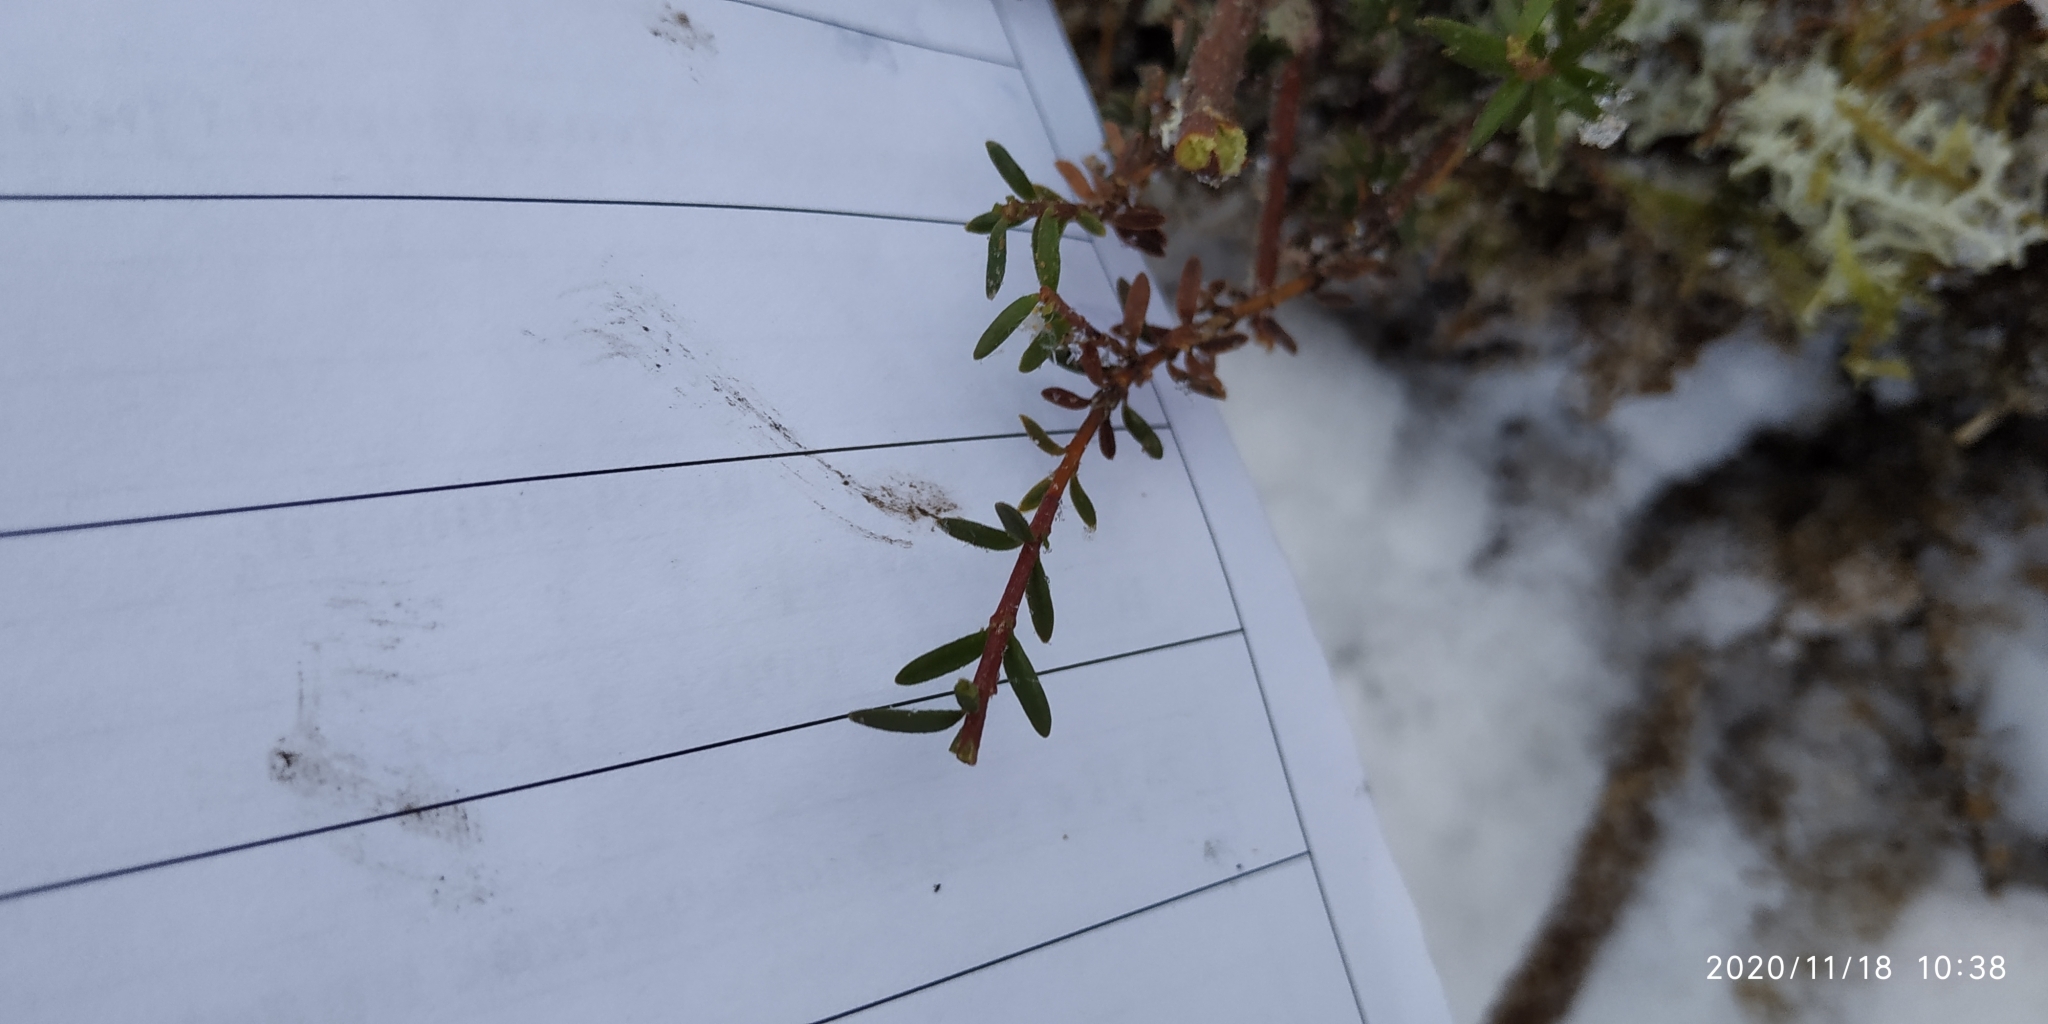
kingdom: Plantae
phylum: Tracheophyta
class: Magnoliopsida
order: Ericales
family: Ericaceae
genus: Empetrum
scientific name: Empetrum nigrum
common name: Black crowberry
